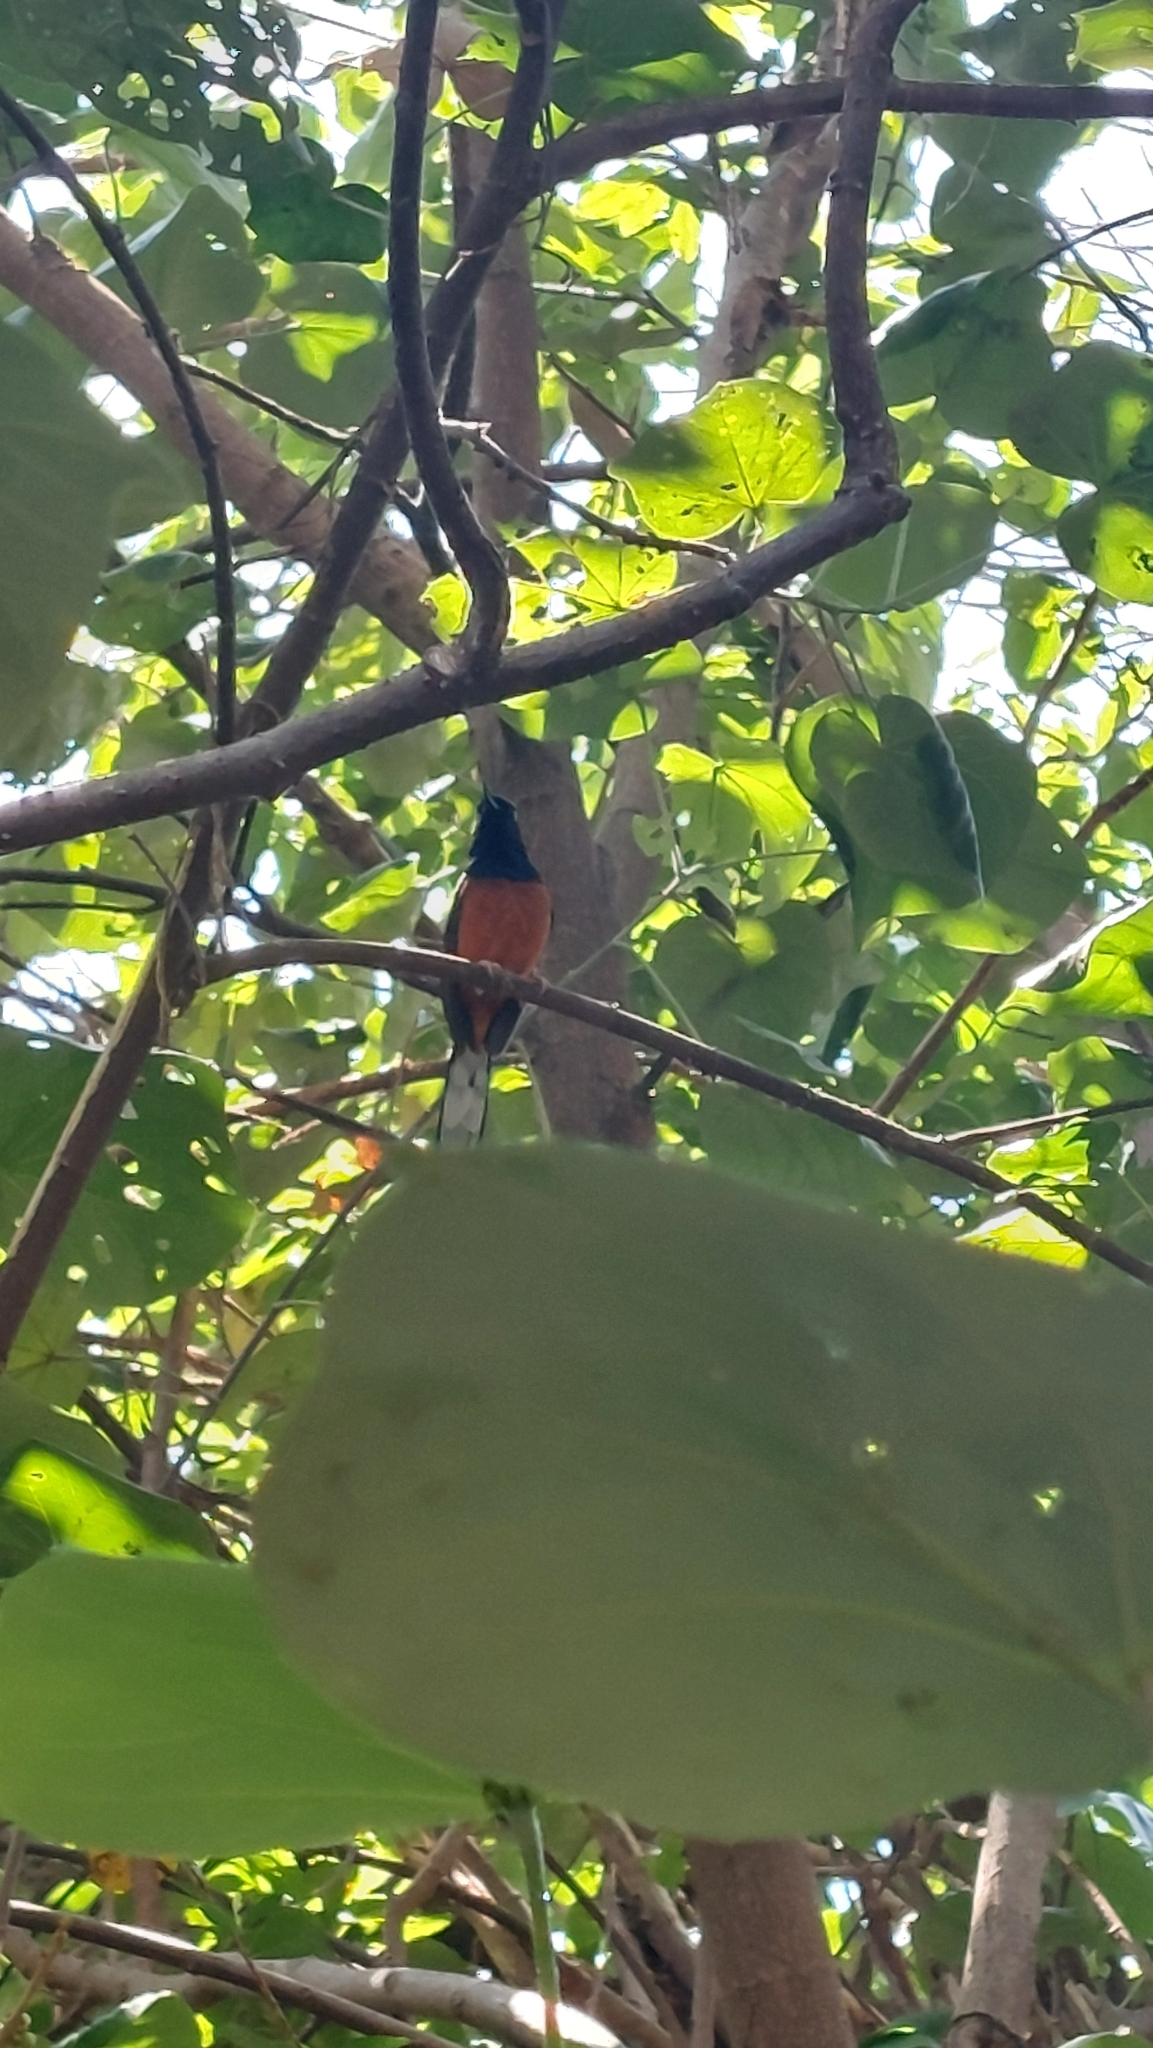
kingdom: Animalia
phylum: Chordata
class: Aves
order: Passeriformes
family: Muscicapidae
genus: Copsychus
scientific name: Copsychus malabaricus
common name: White-rumped shama
